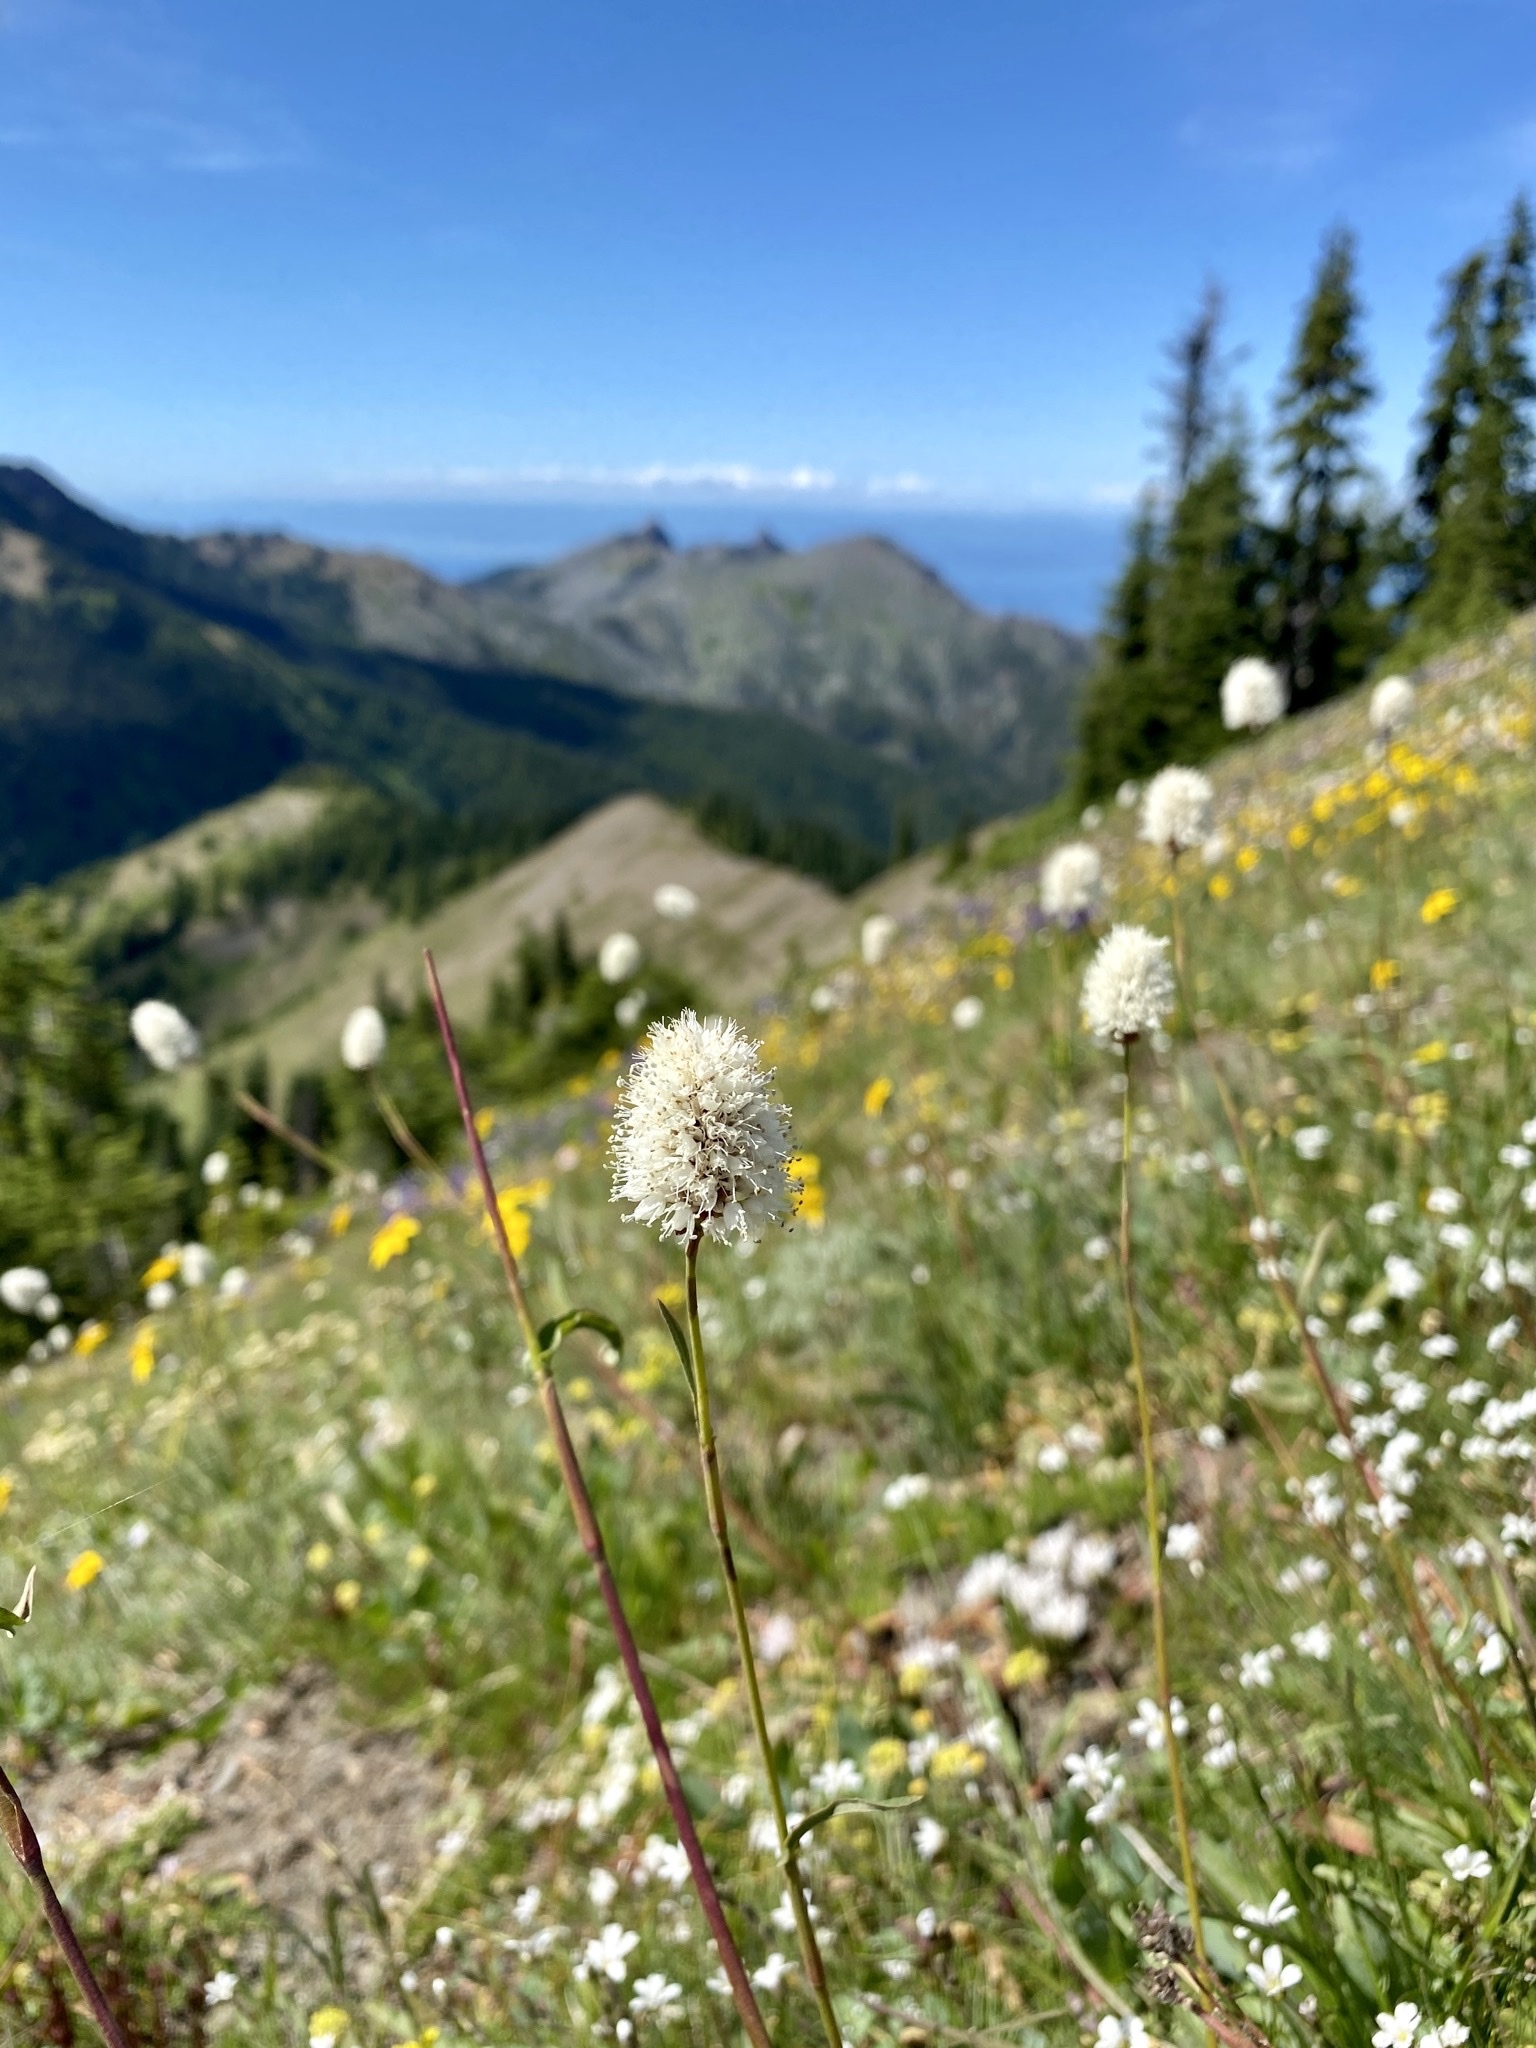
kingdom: Plantae
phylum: Tracheophyta
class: Magnoliopsida
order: Caryophyllales
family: Polygonaceae
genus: Bistorta
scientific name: Bistorta bistortoides
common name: American bistort
